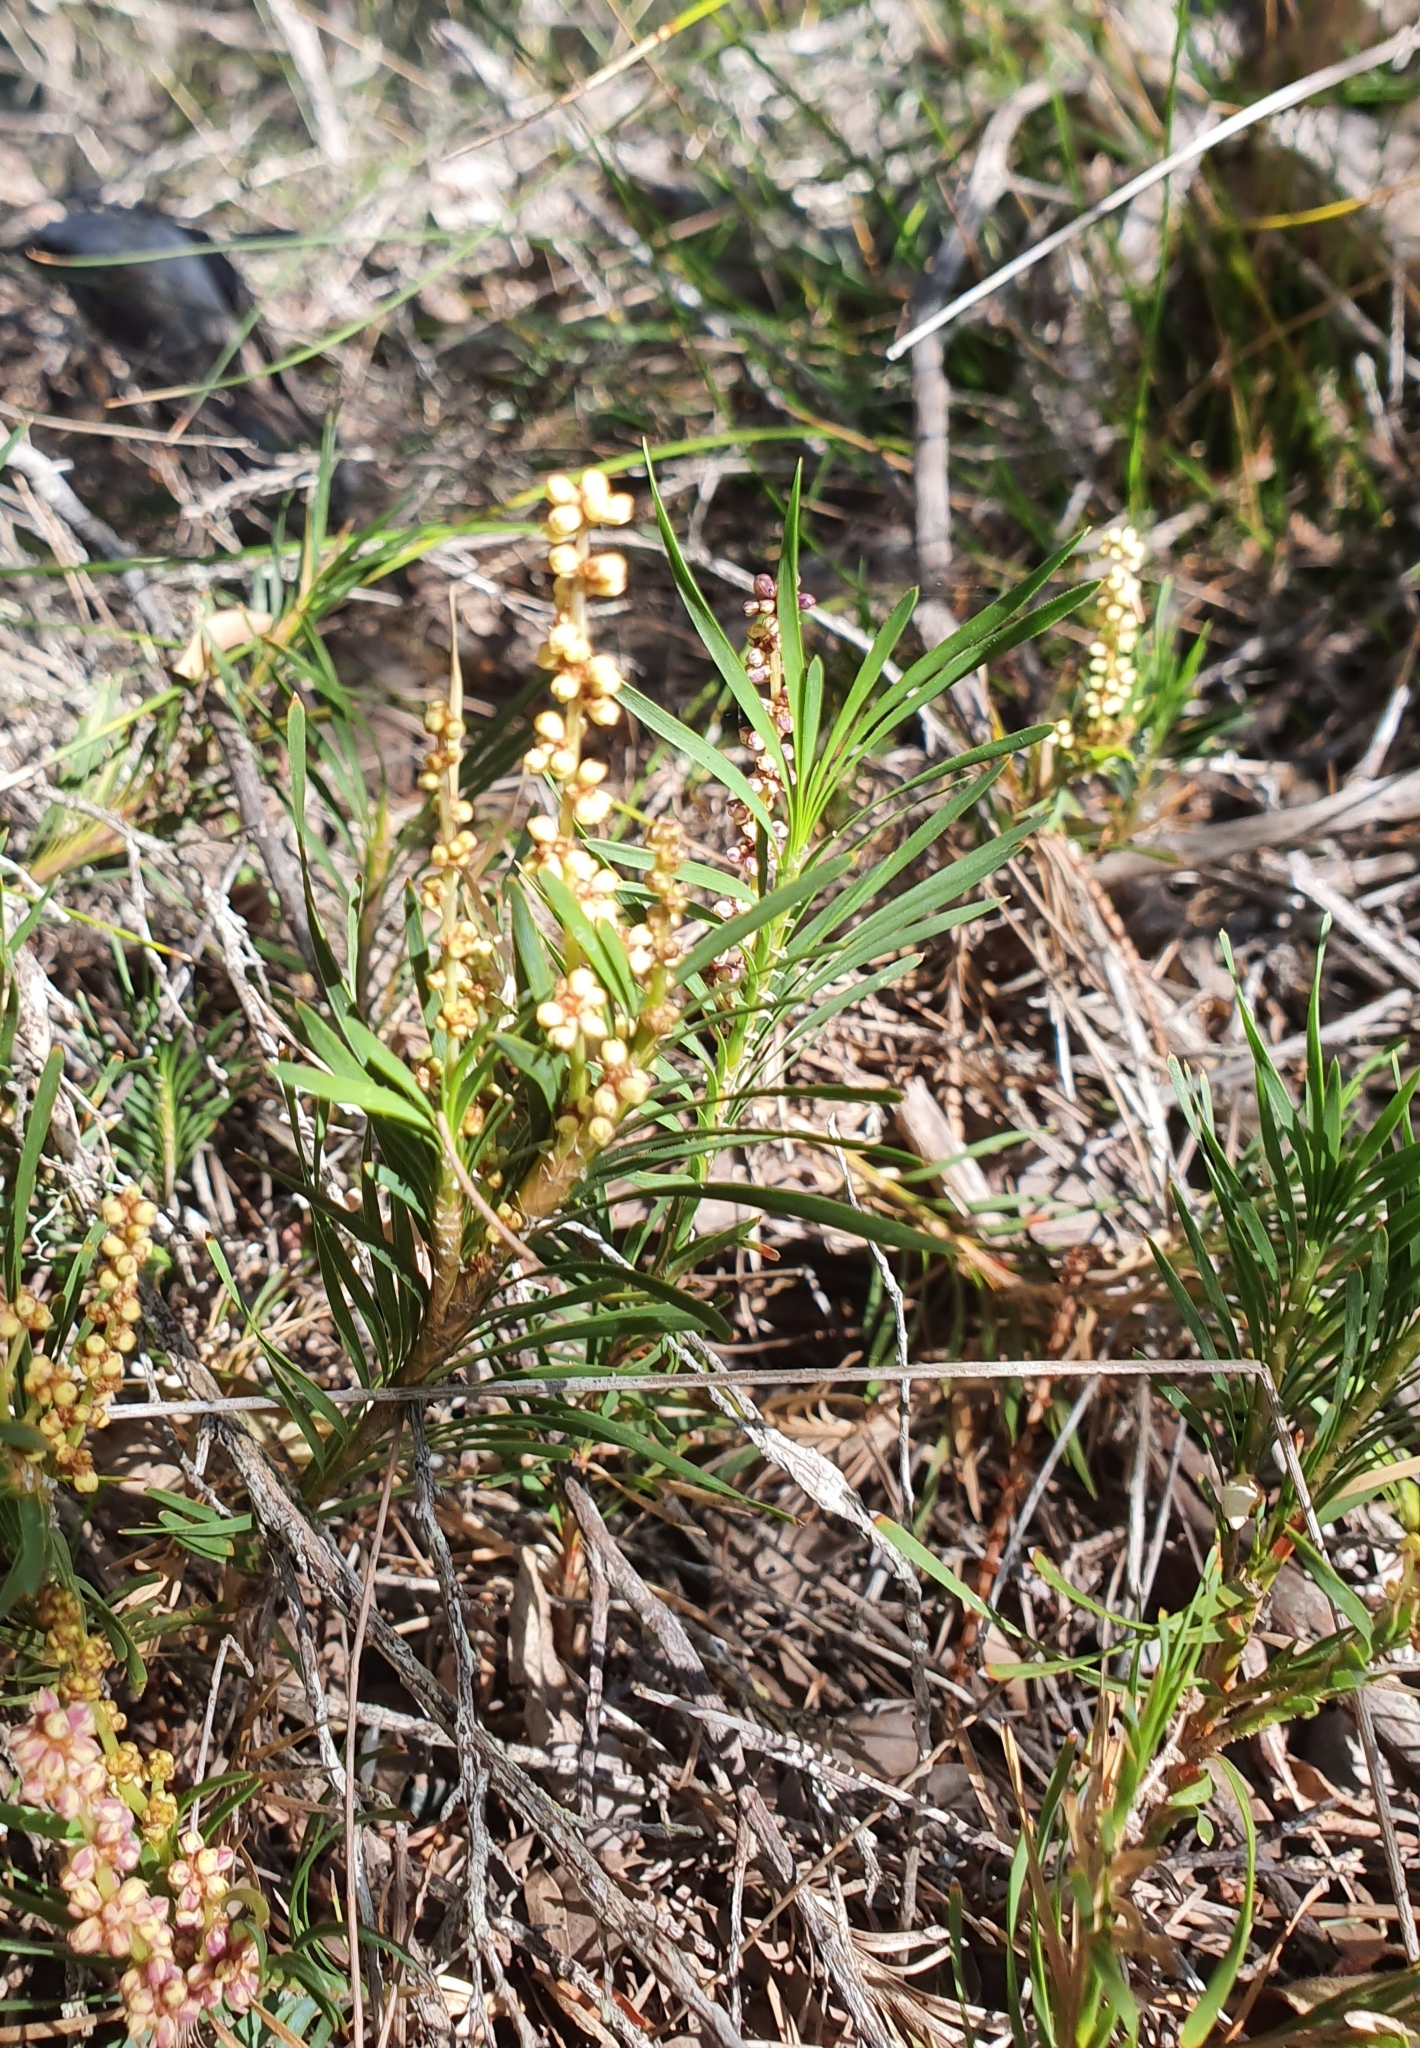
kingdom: Plantae
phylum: Tracheophyta
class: Liliopsida
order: Asparagales
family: Asparagaceae
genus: Lomandra
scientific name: Lomandra obliqua
